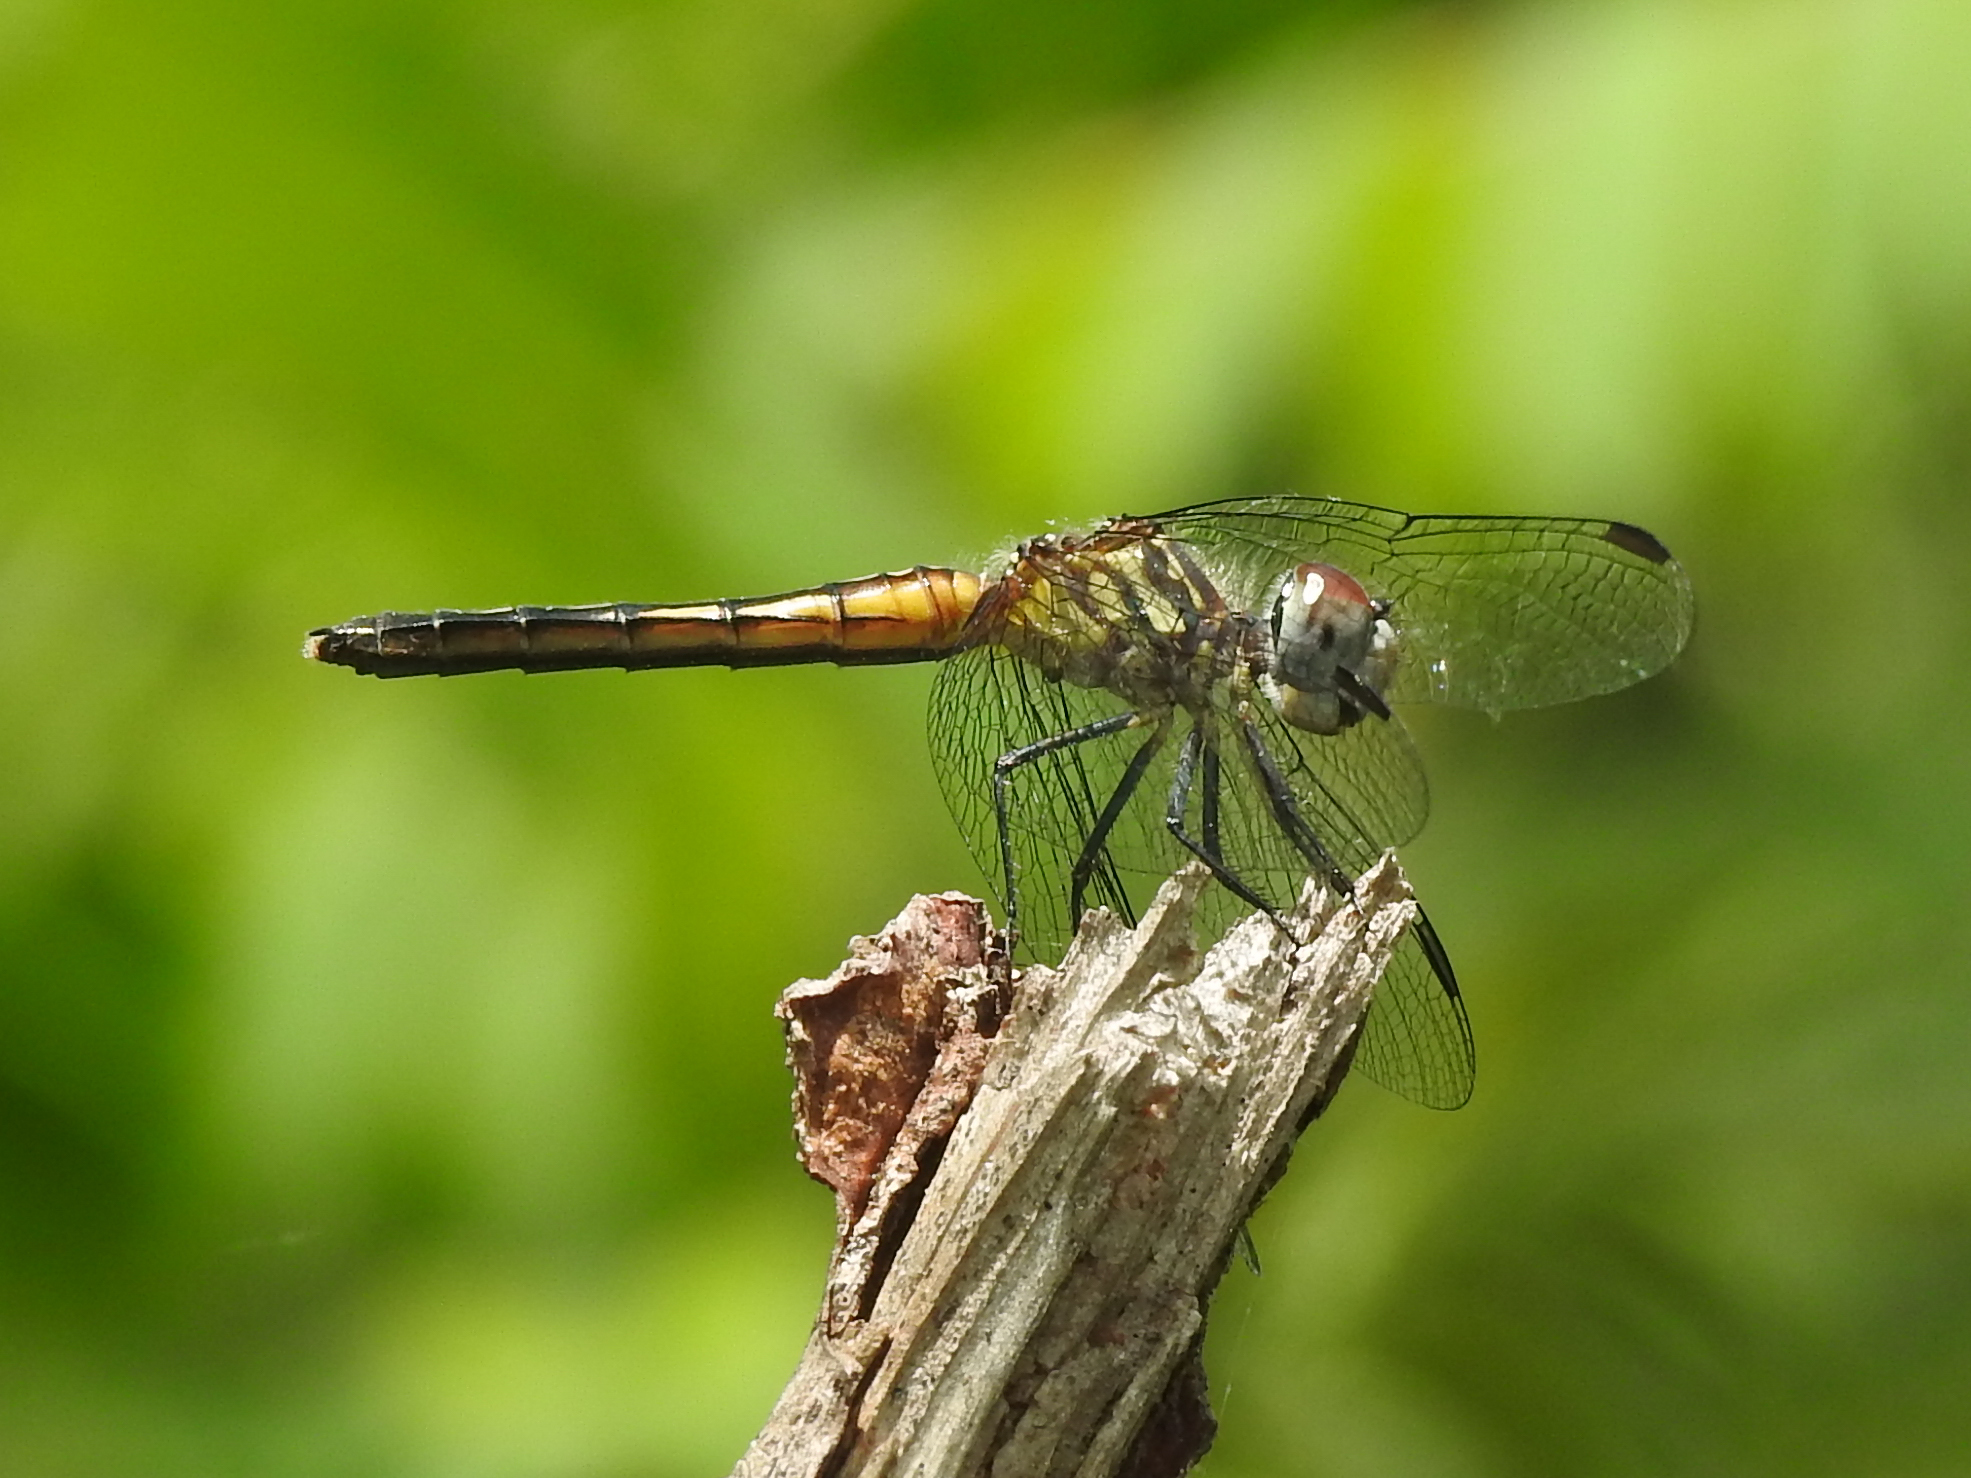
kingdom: Animalia
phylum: Arthropoda
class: Insecta
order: Odonata
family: Libellulidae
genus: Pachydiplax
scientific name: Pachydiplax longipennis
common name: Blue dasher
